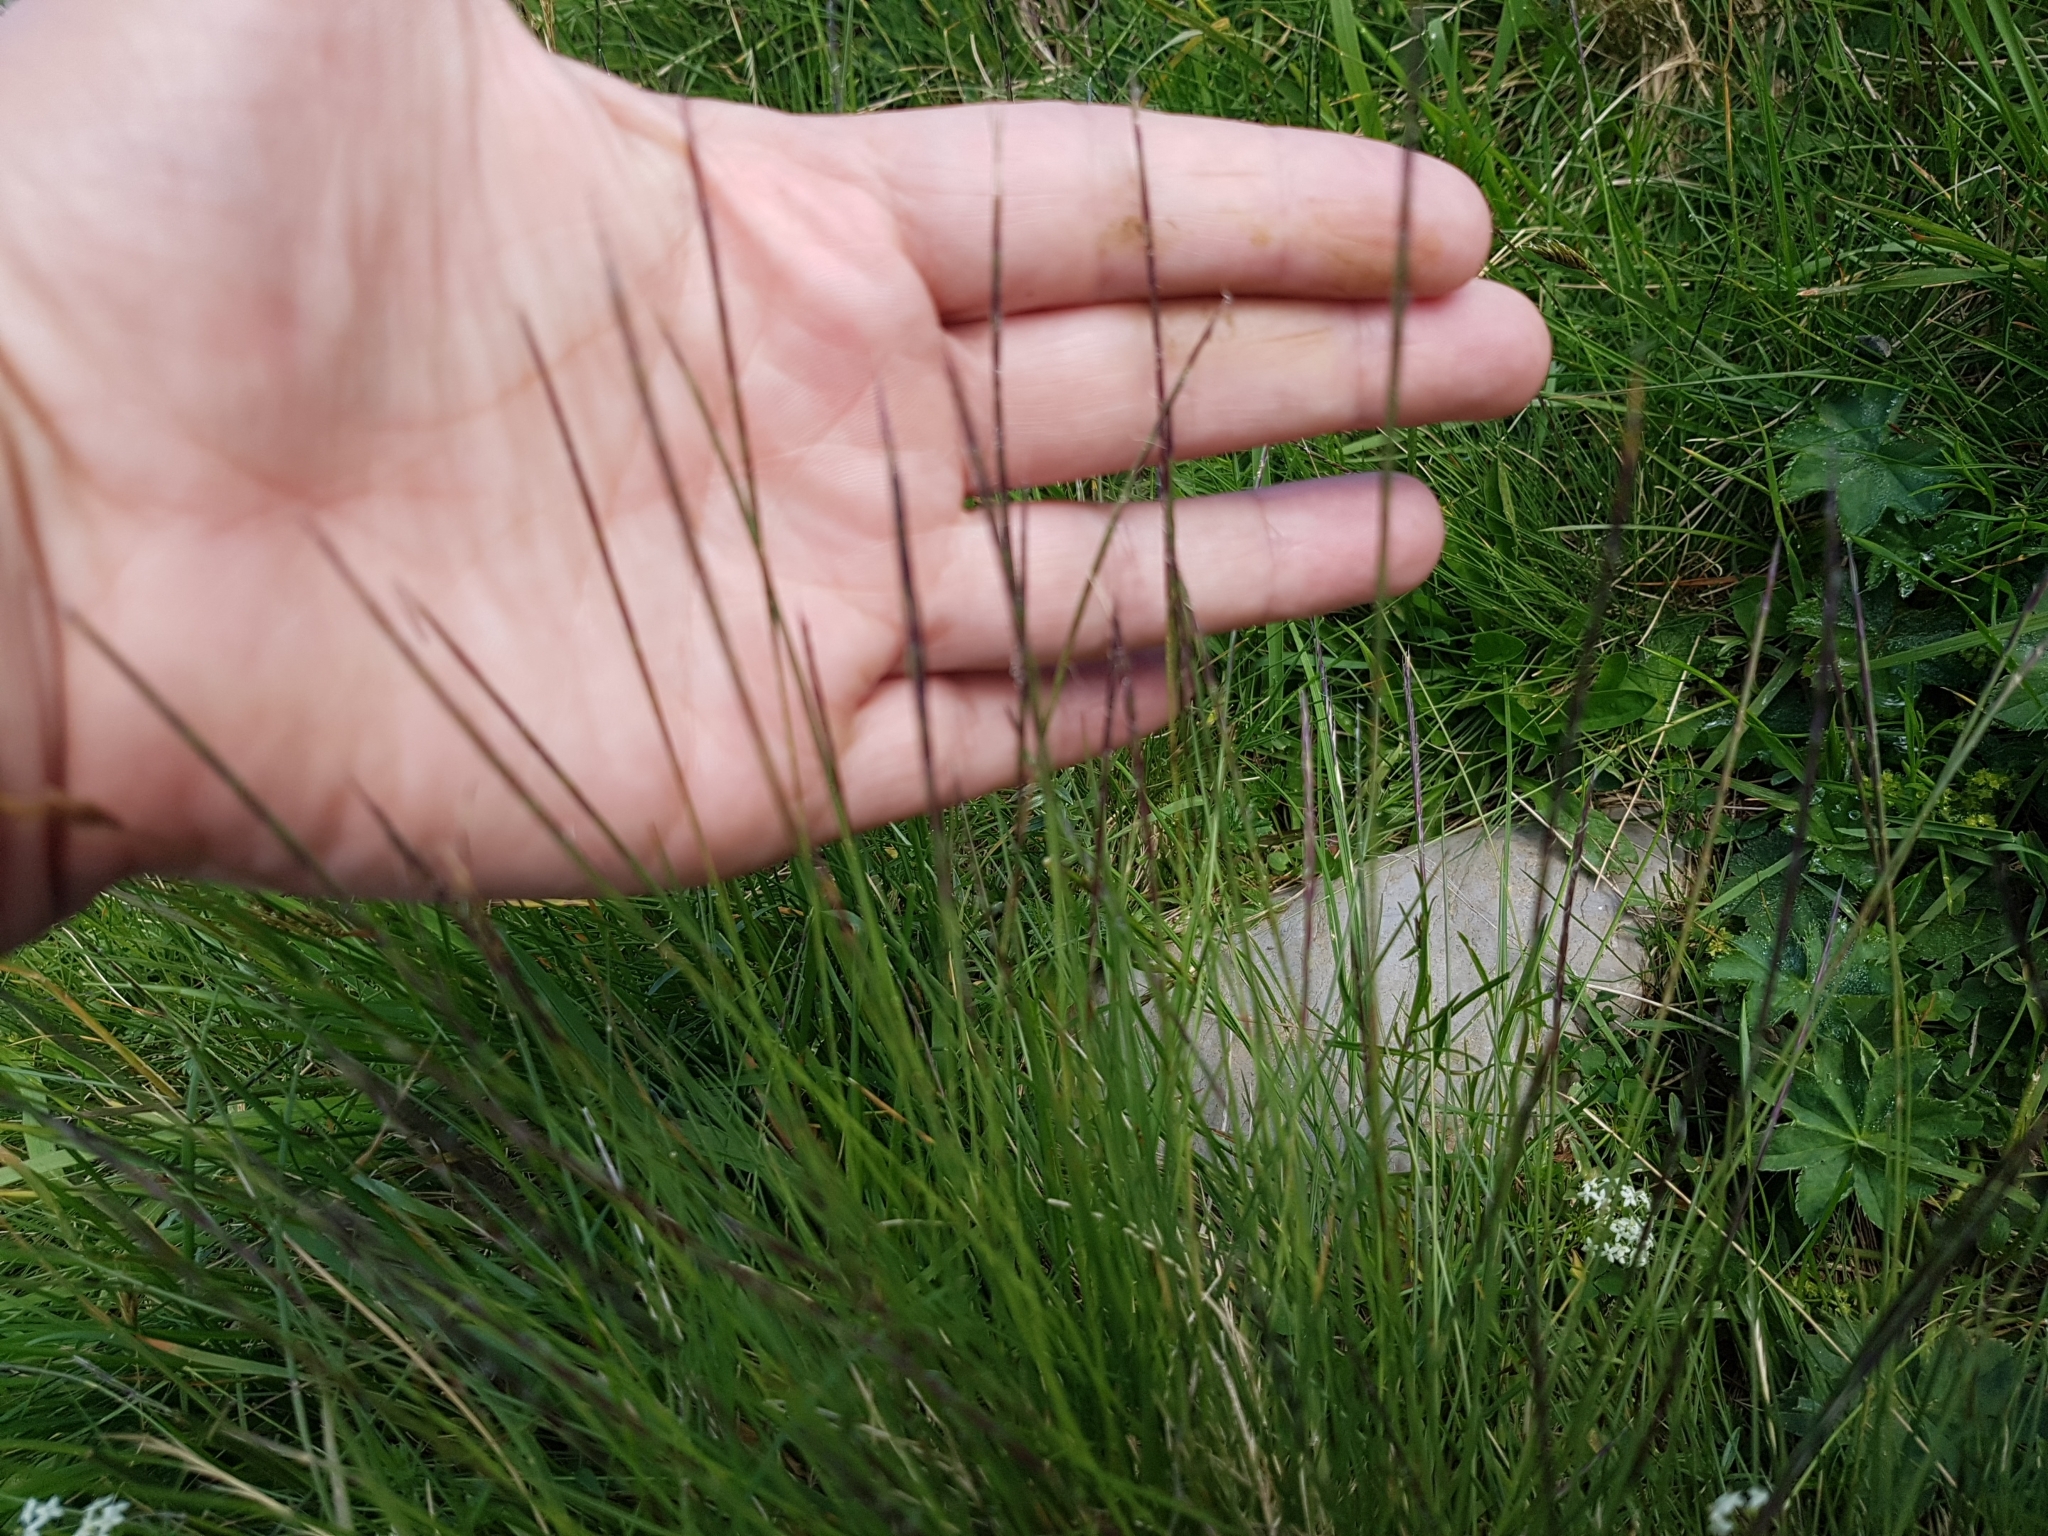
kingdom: Plantae
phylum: Tracheophyta
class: Liliopsida
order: Poales
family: Poaceae
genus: Nardus
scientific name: Nardus stricta
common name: Mat-grass
